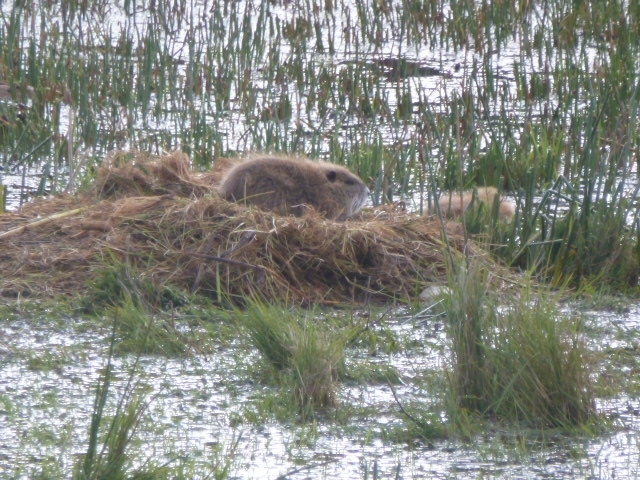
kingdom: Animalia
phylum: Chordata
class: Mammalia
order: Rodentia
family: Myocastoridae
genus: Myocastor
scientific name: Myocastor coypus
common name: Coypu
